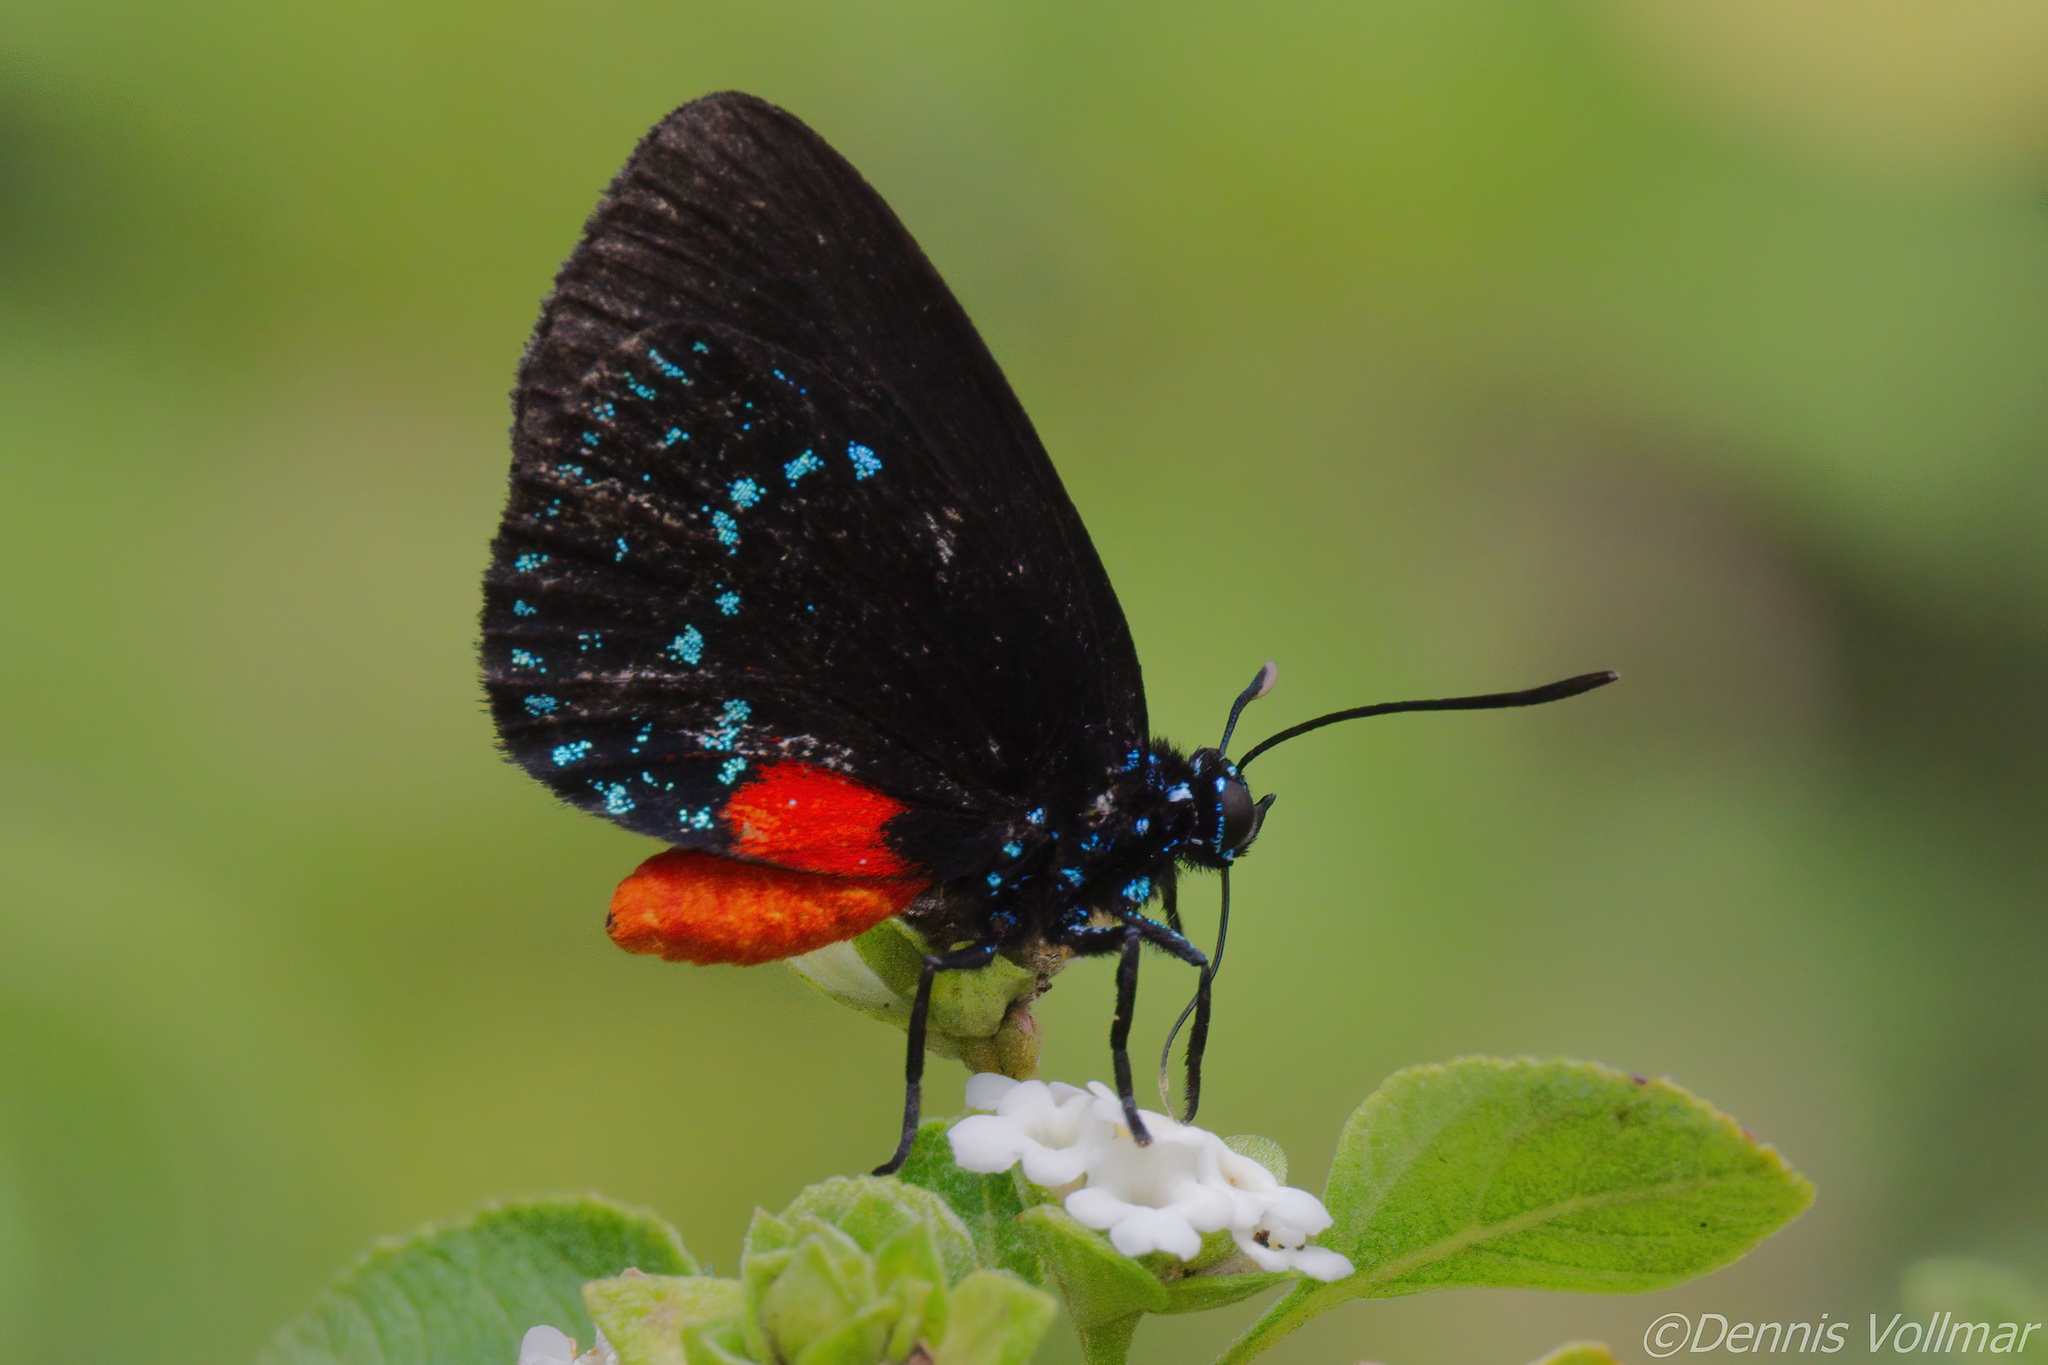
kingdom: Animalia
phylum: Arthropoda
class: Insecta
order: Lepidoptera
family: Lycaenidae
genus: Eumaeus
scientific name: Eumaeus atala
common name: Atala
